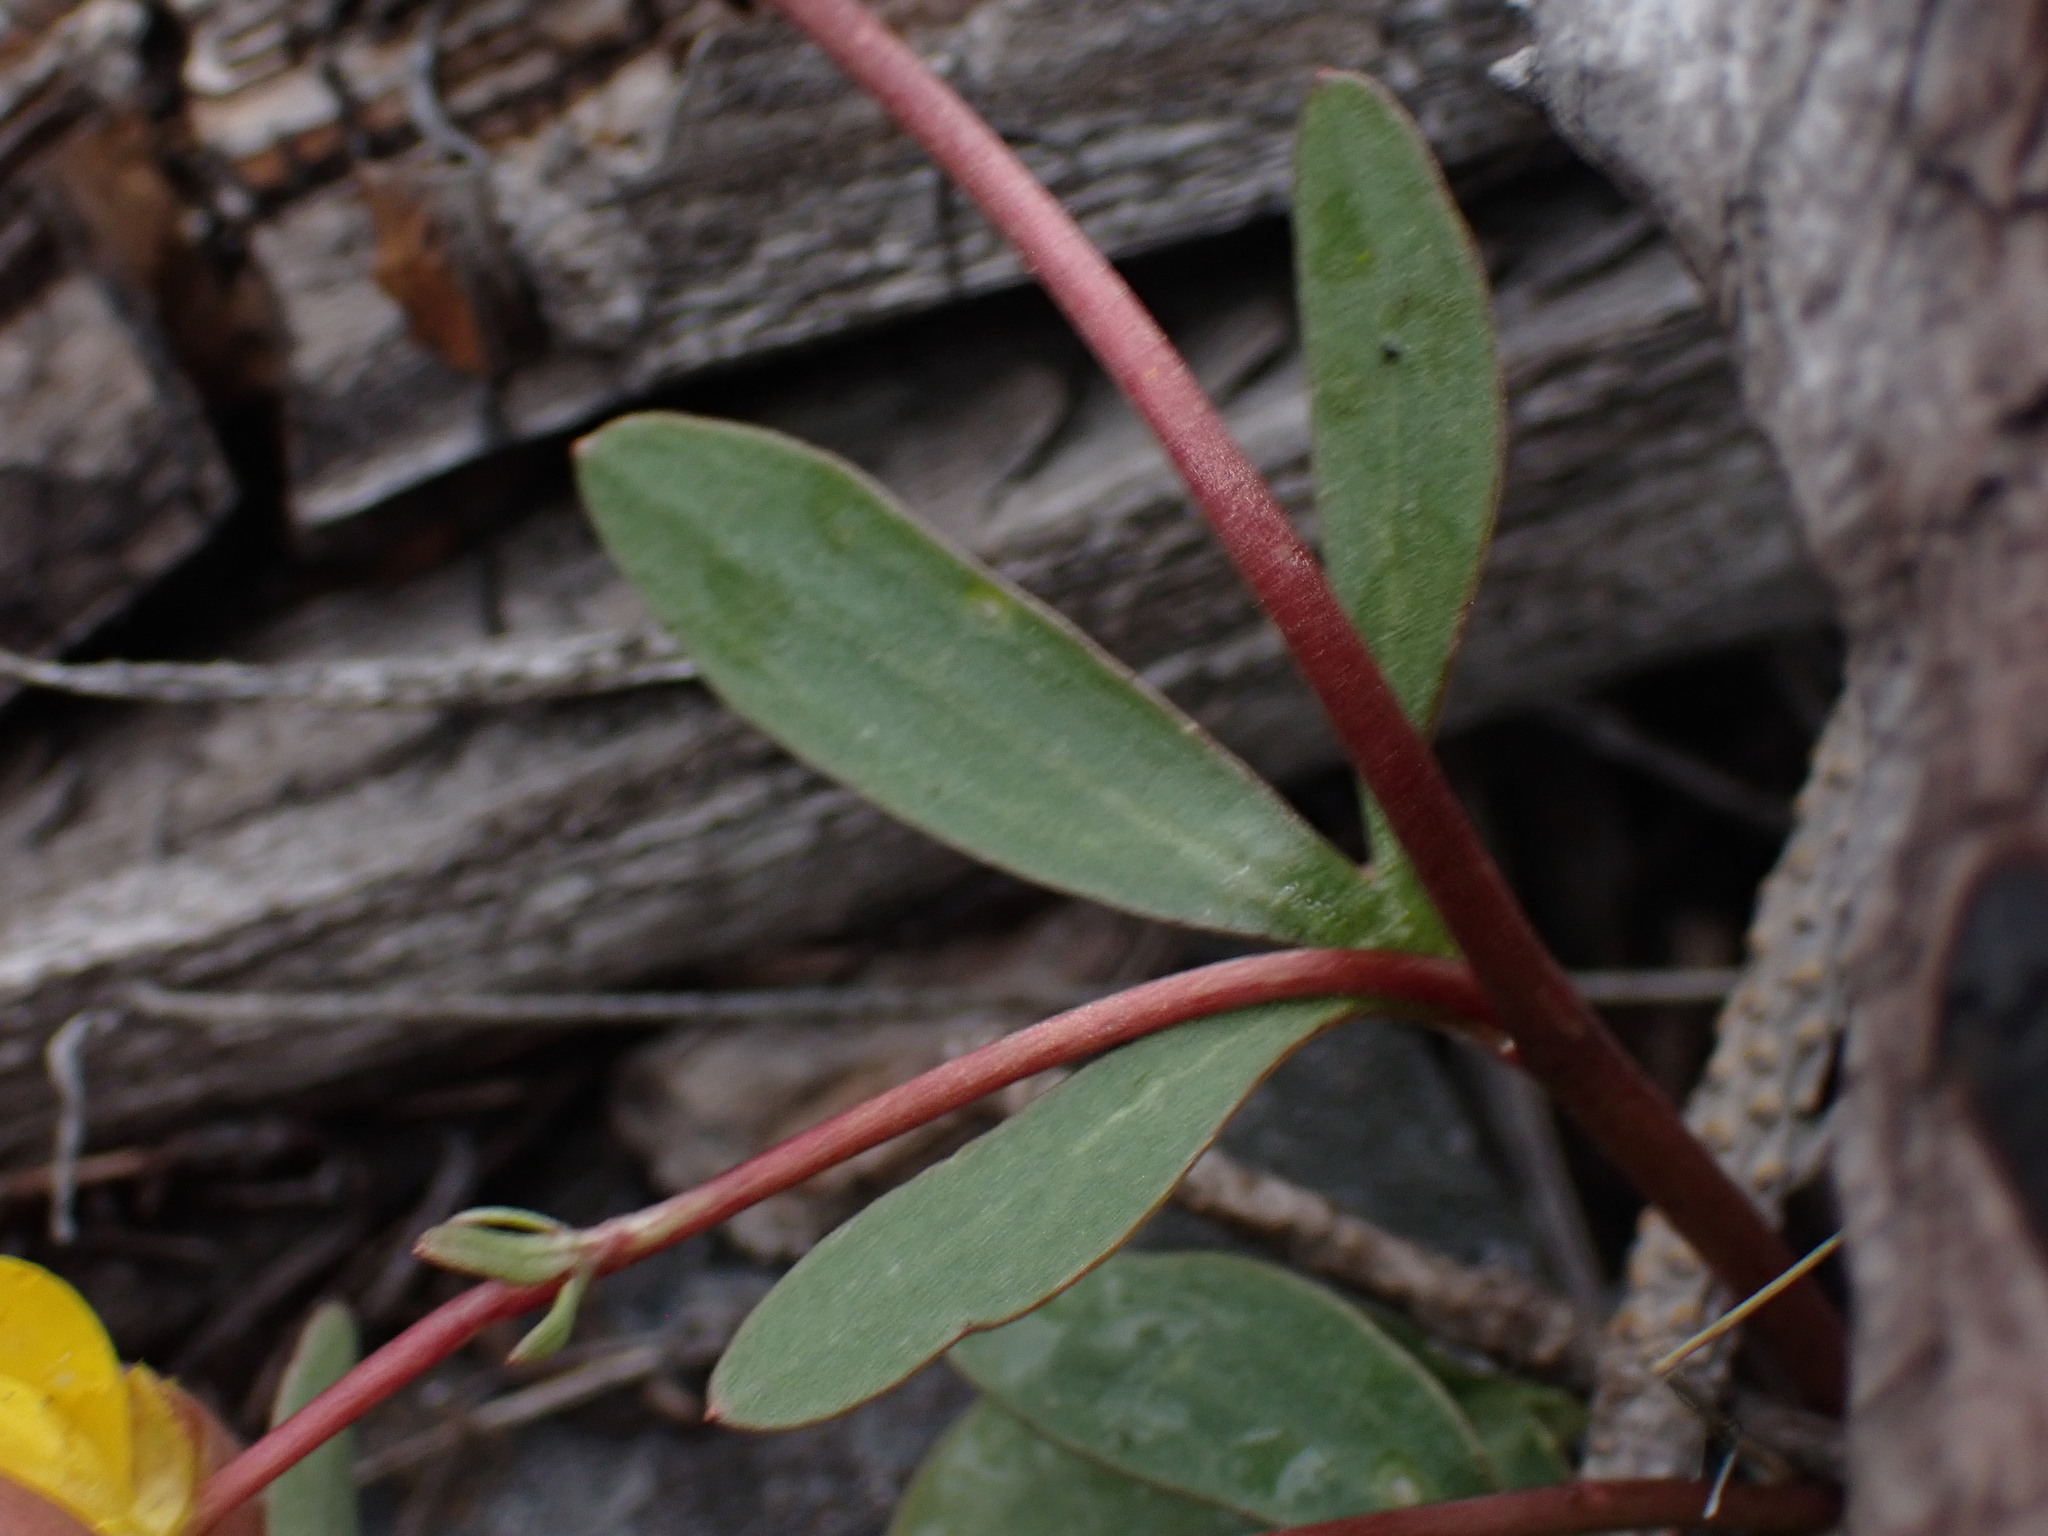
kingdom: Plantae
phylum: Tracheophyta
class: Magnoliopsida
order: Ranunculales
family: Ranunculaceae
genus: Ranunculus
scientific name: Ranunculus glaberrimus
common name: Sagebrush buttercup
